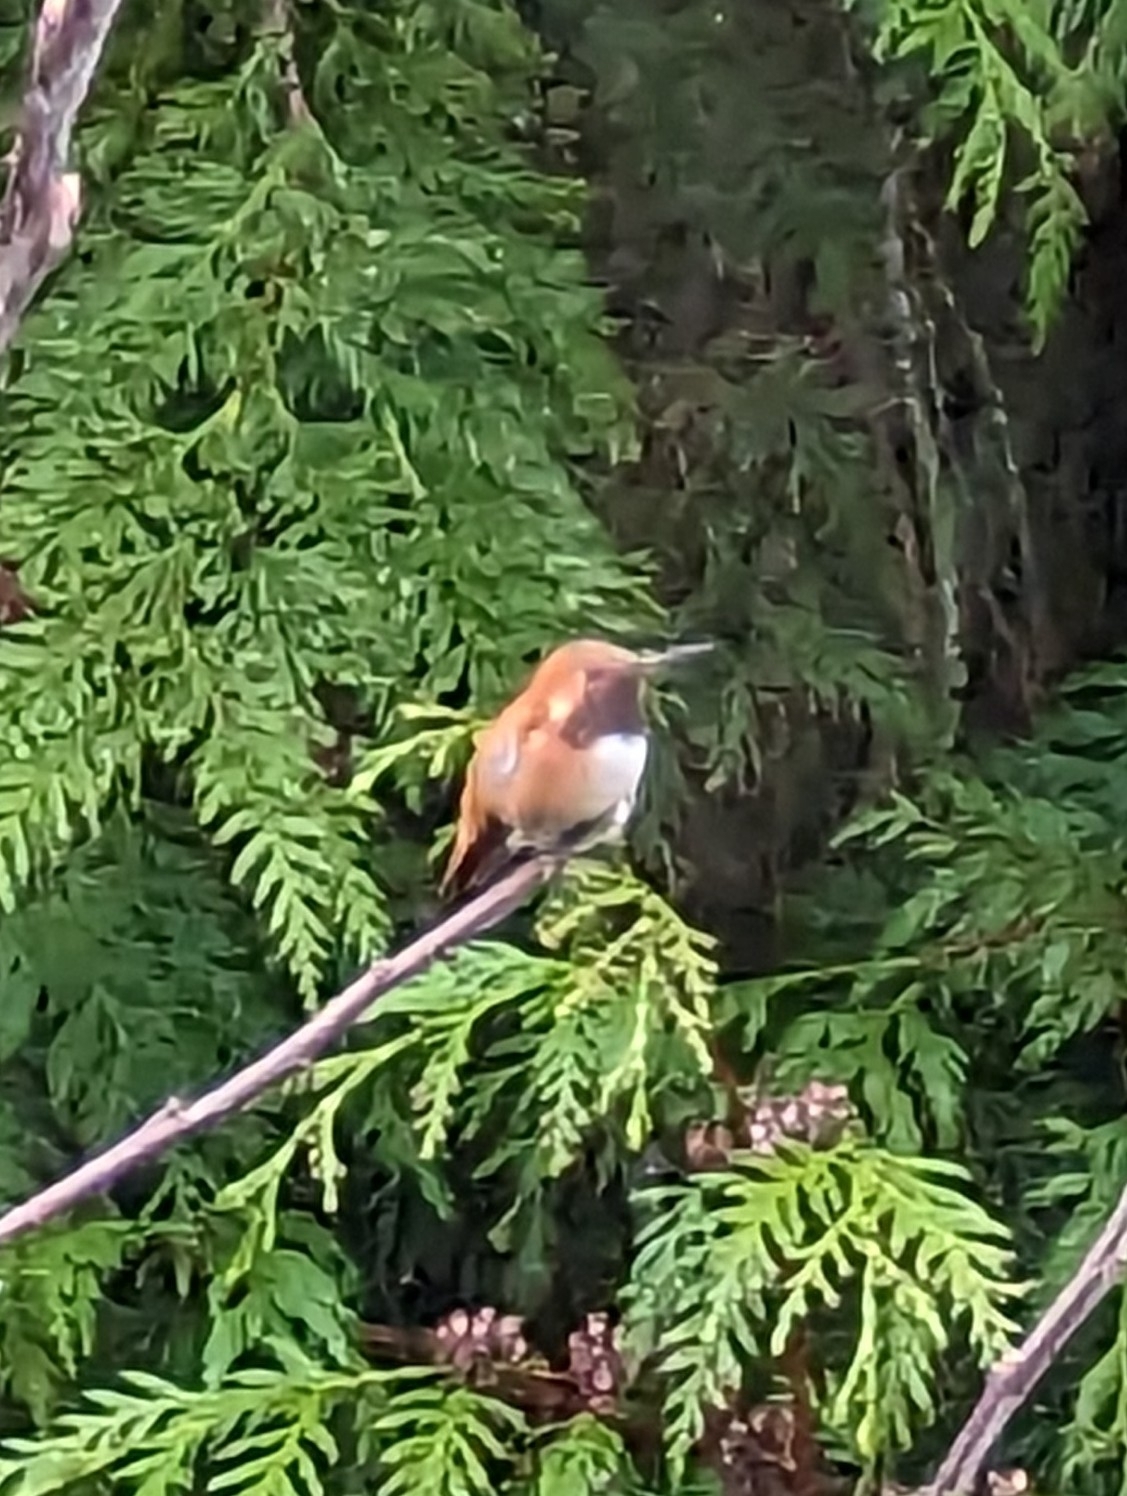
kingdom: Animalia
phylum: Chordata
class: Aves
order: Apodiformes
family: Trochilidae
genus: Selasphorus
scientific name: Selasphorus rufus
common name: Rufous hummingbird
